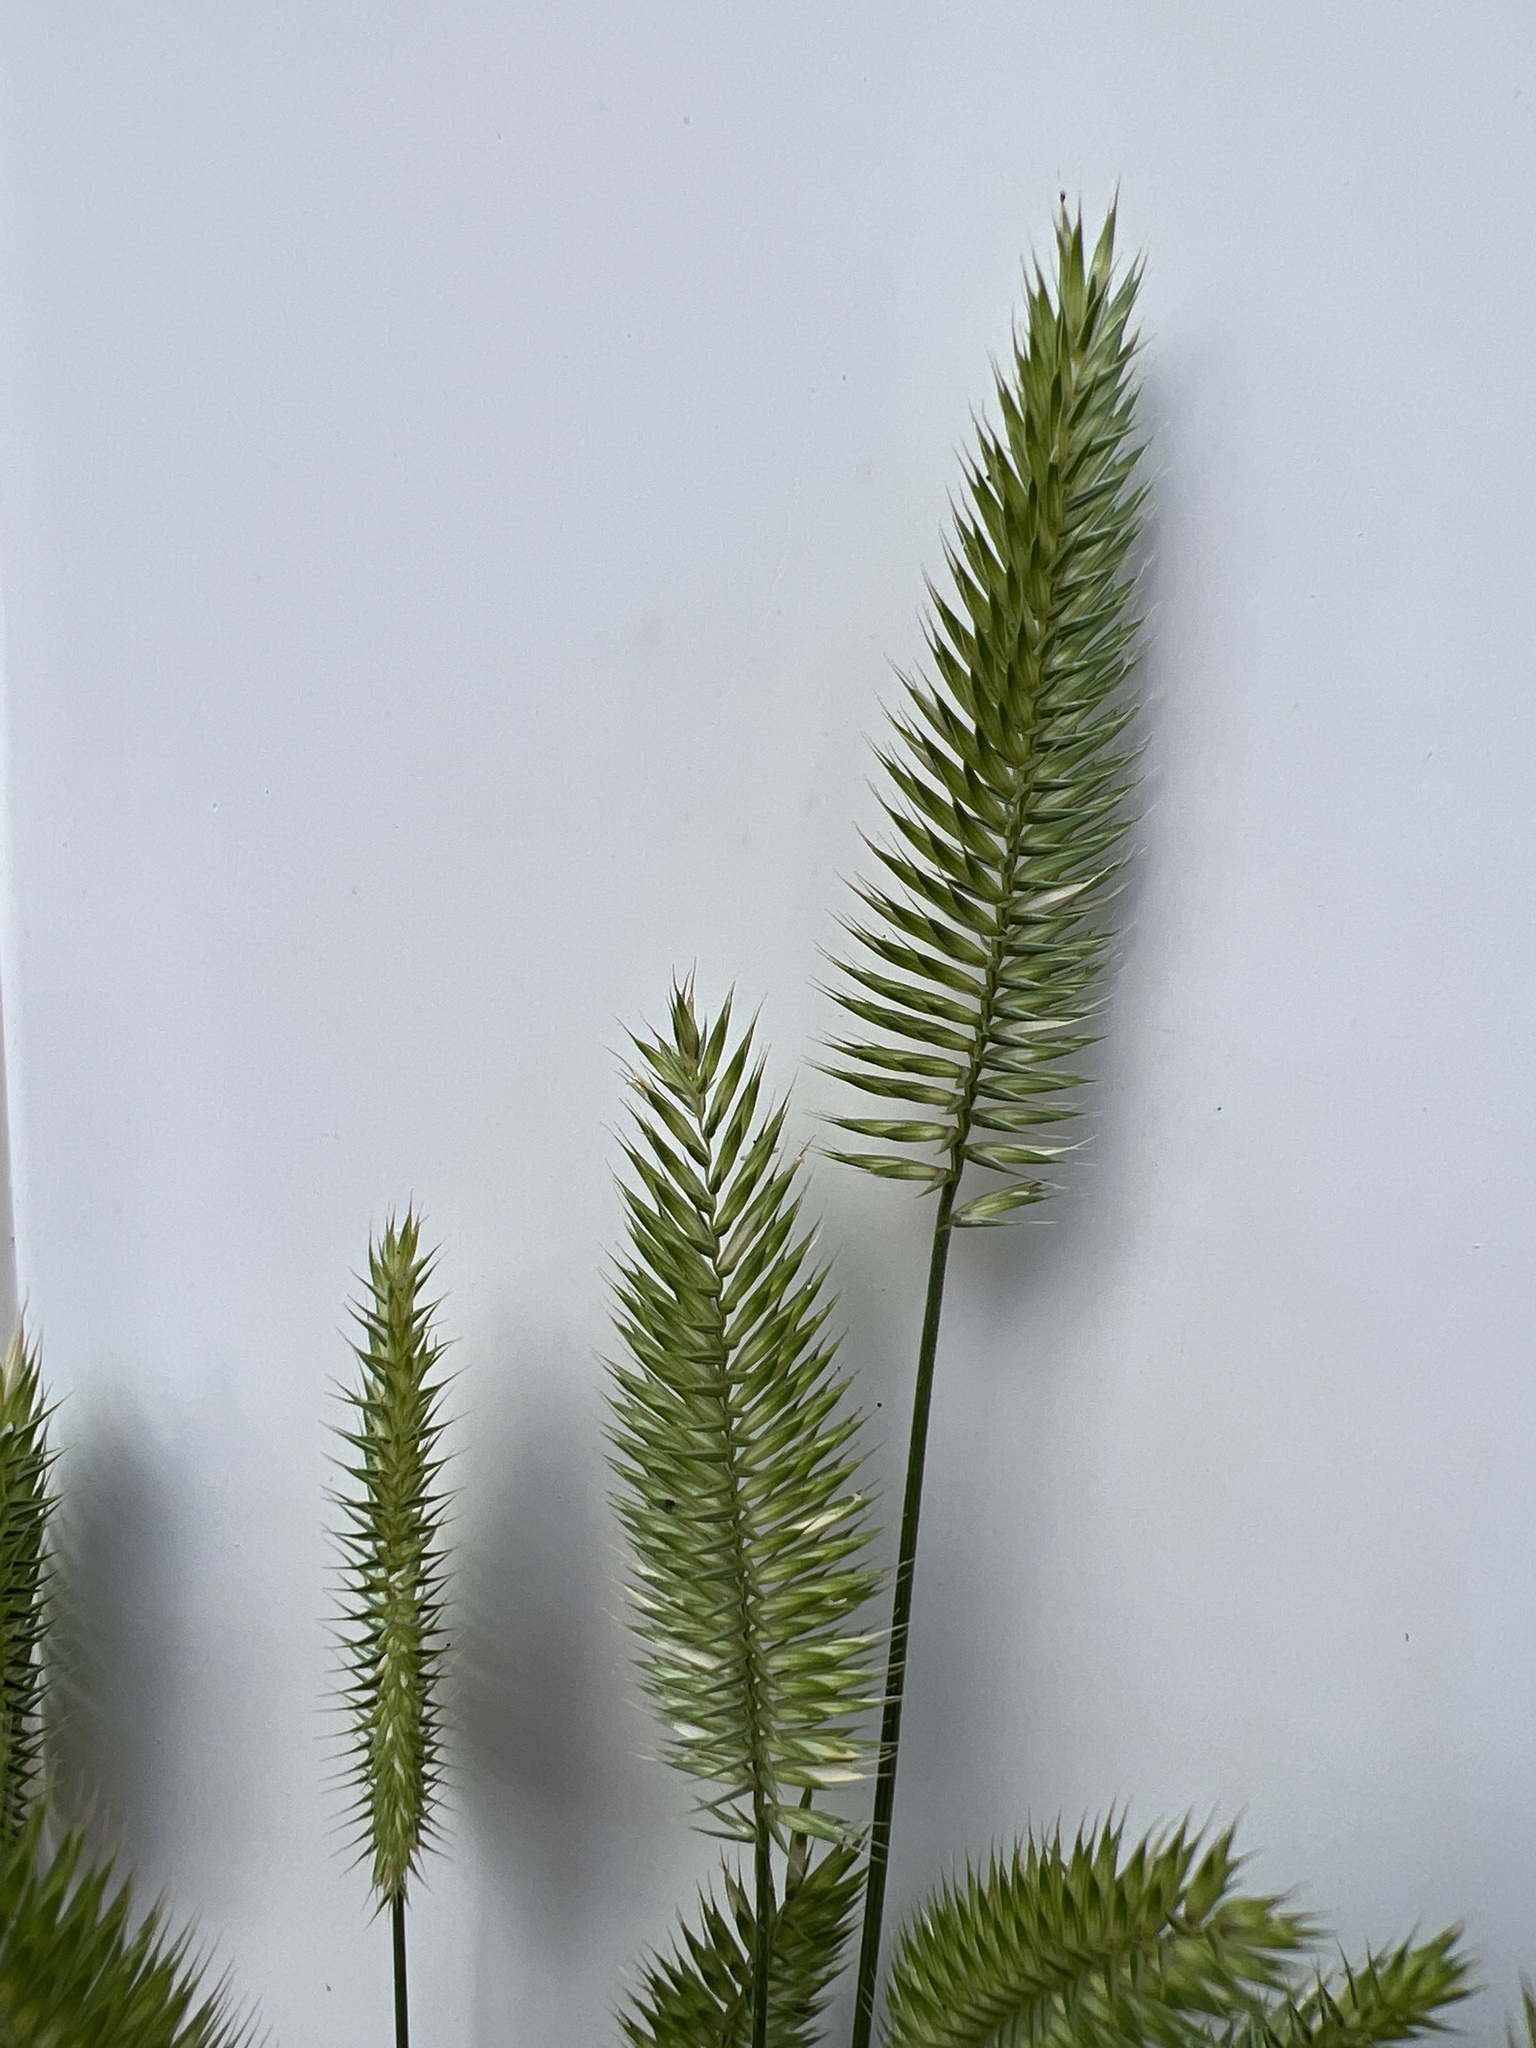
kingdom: Plantae
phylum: Tracheophyta
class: Liliopsida
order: Poales
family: Poaceae
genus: Agropyron
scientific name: Agropyron cristatum
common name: Crested wheatgrass
